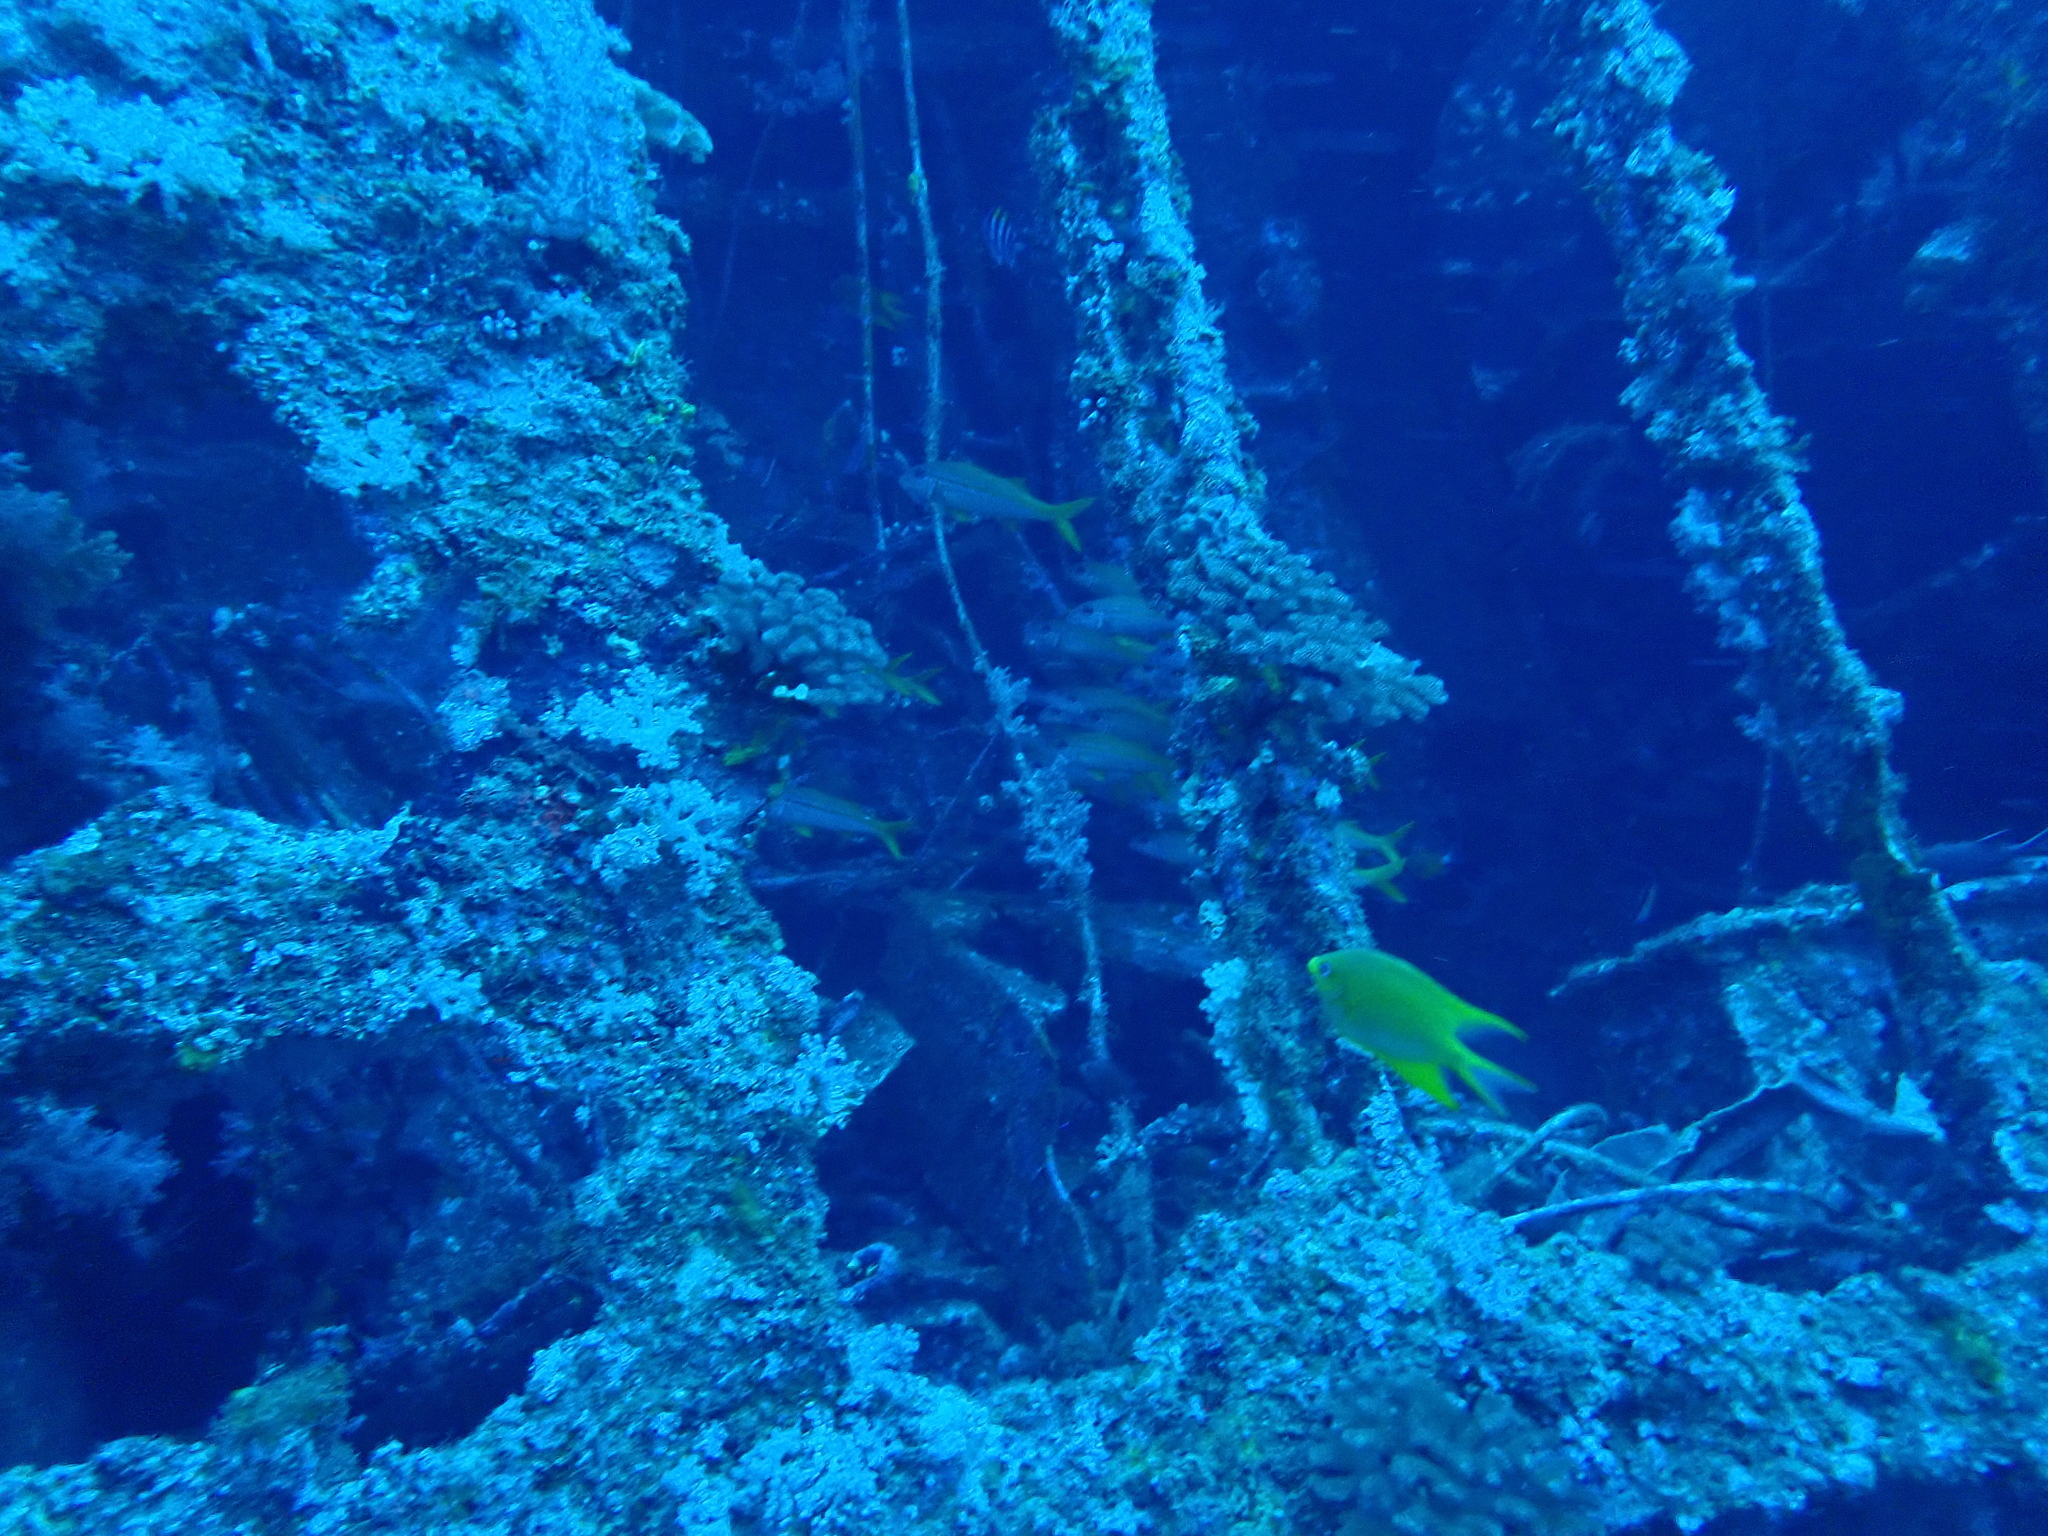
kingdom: Animalia
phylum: Chordata
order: Perciformes
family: Pomacentridae
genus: Amblyglyphidodon
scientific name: Amblyglyphidodon aureus
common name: Golden damsel
